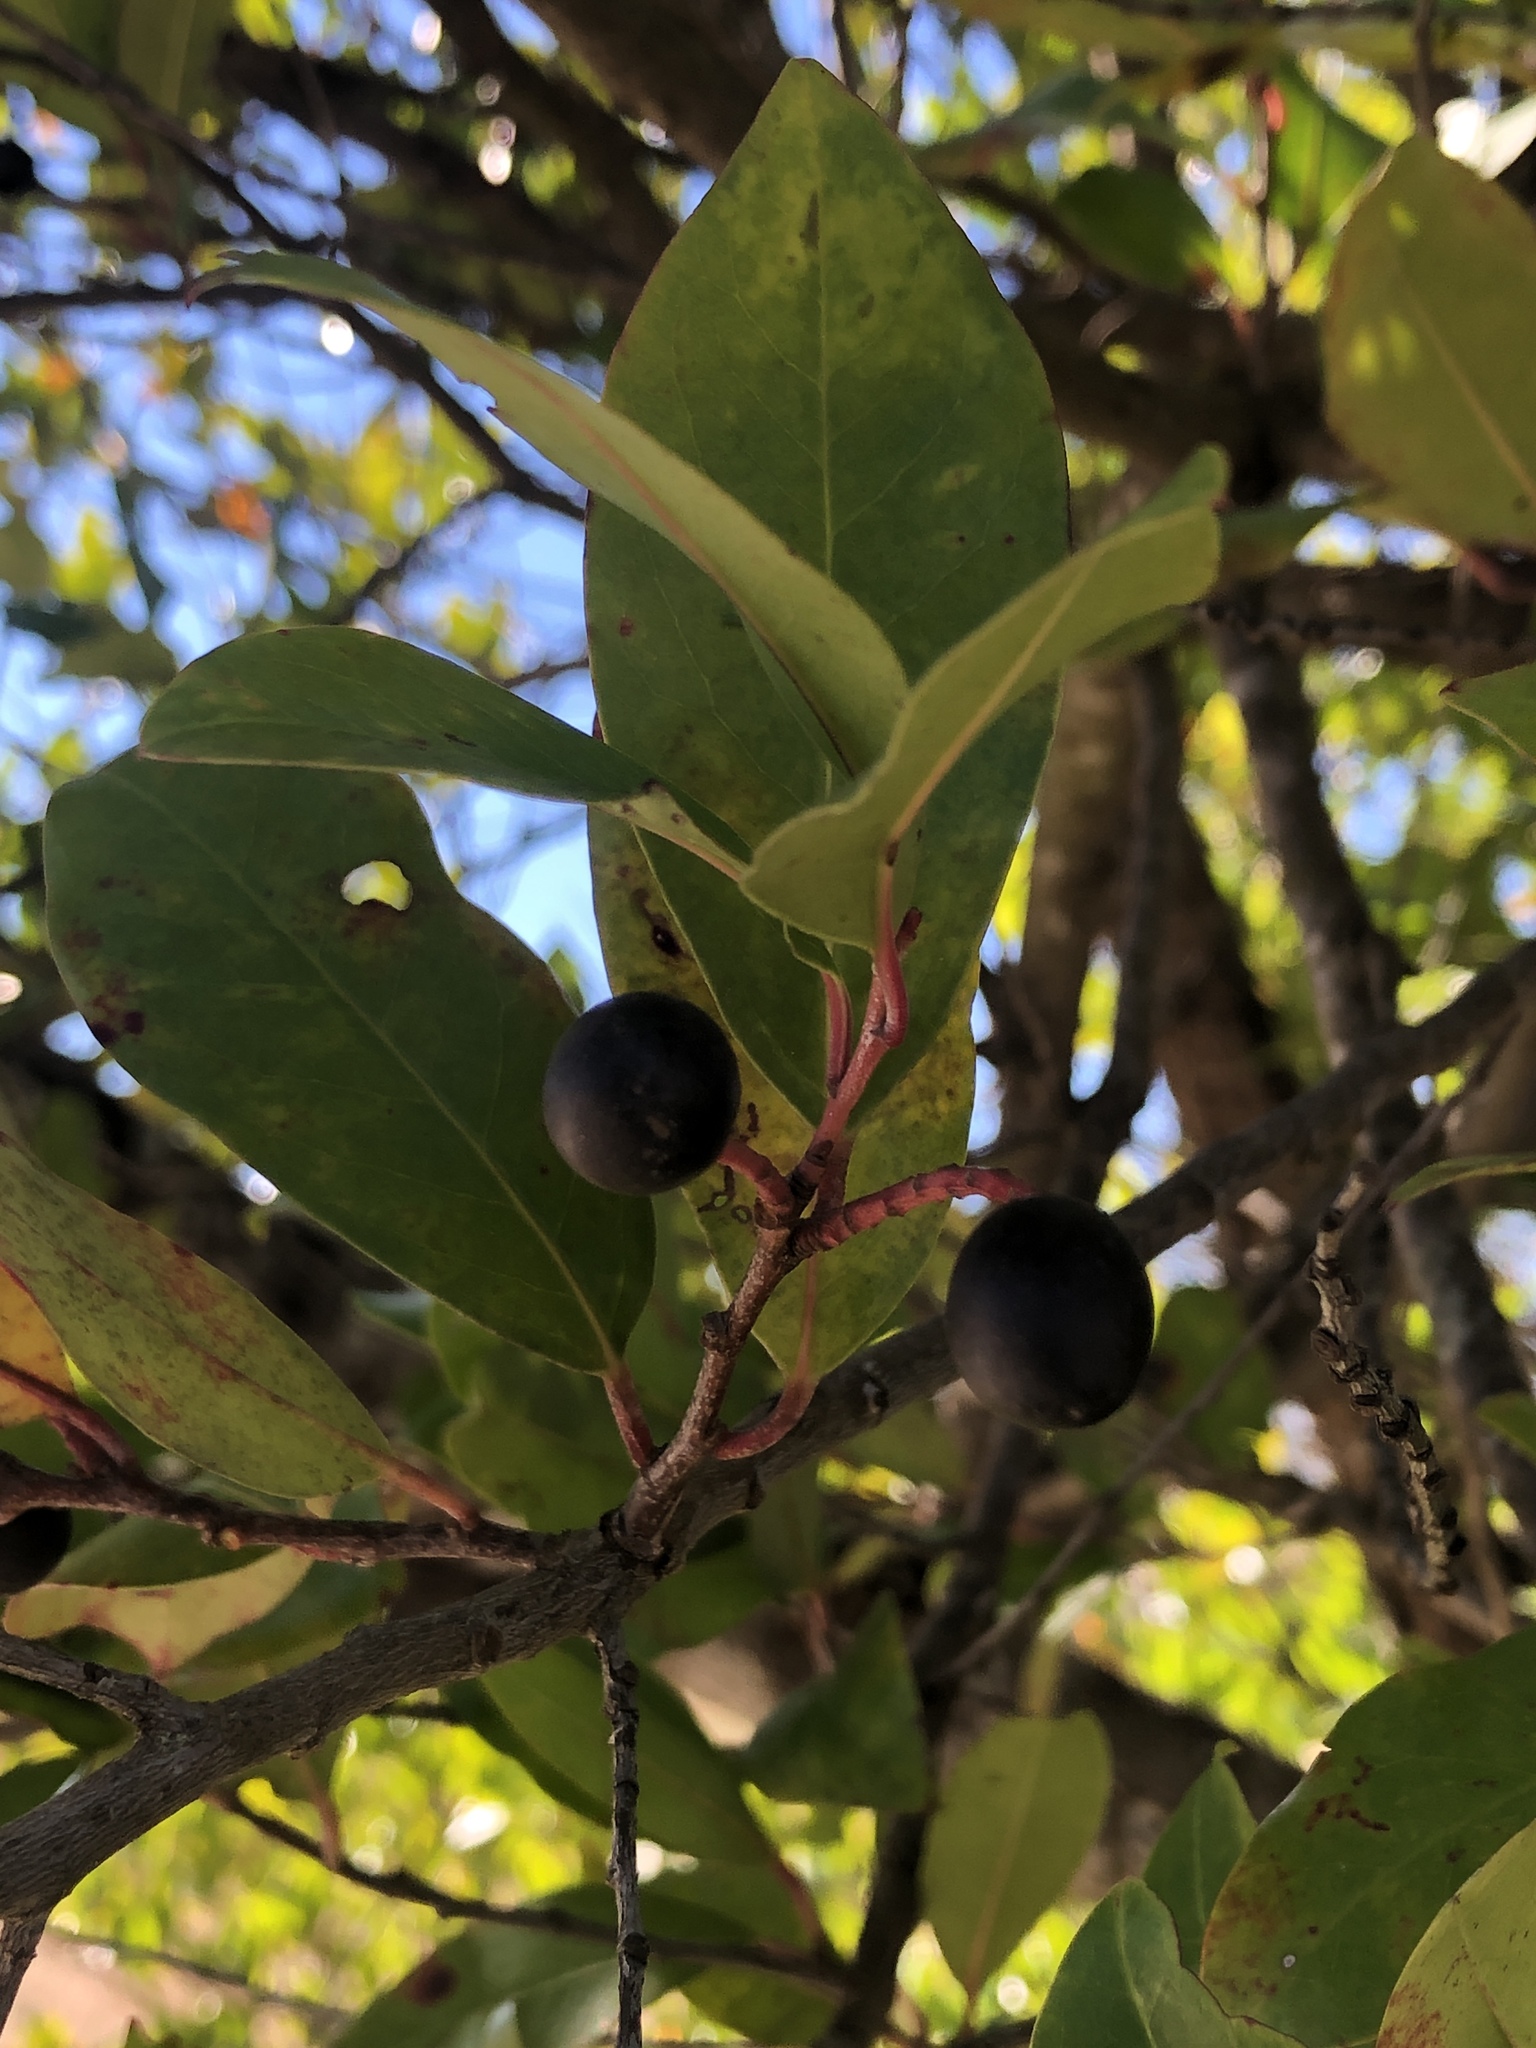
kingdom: Plantae
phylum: Tracheophyta
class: Magnoliopsida
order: Rosales
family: Rosaceae
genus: Prunus
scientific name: Prunus caroliniana
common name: Carolina laurel cherry
